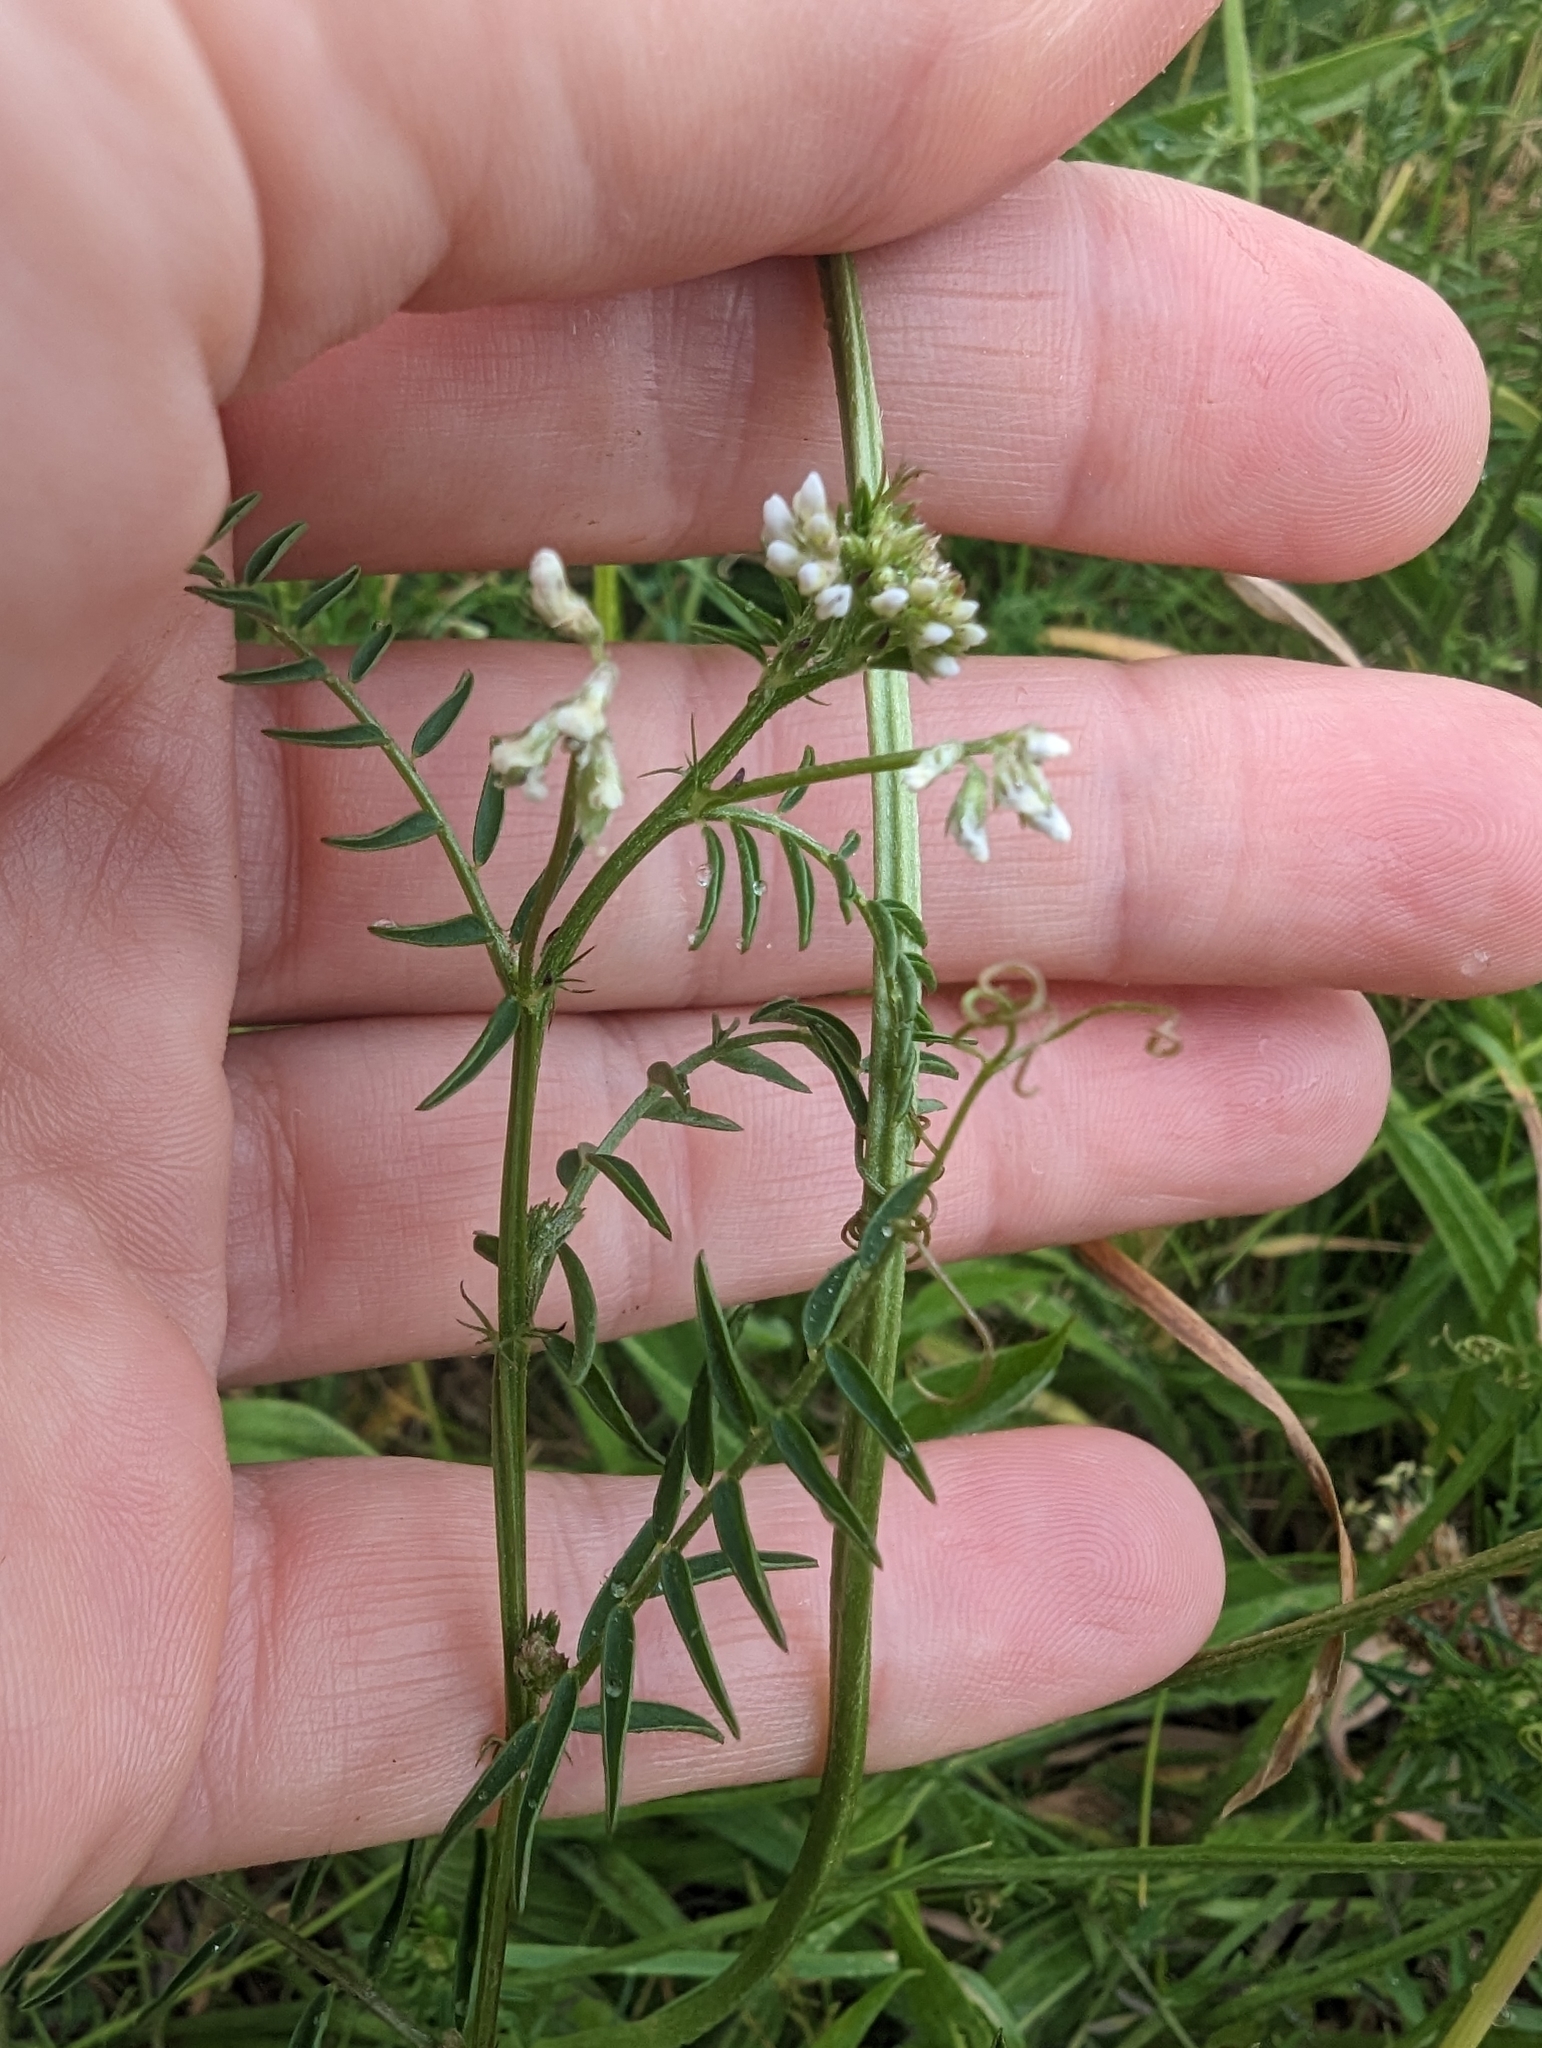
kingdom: Plantae
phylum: Tracheophyta
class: Magnoliopsida
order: Fabales
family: Fabaceae
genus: Vicia
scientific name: Vicia hirsuta
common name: Tiny vetch
